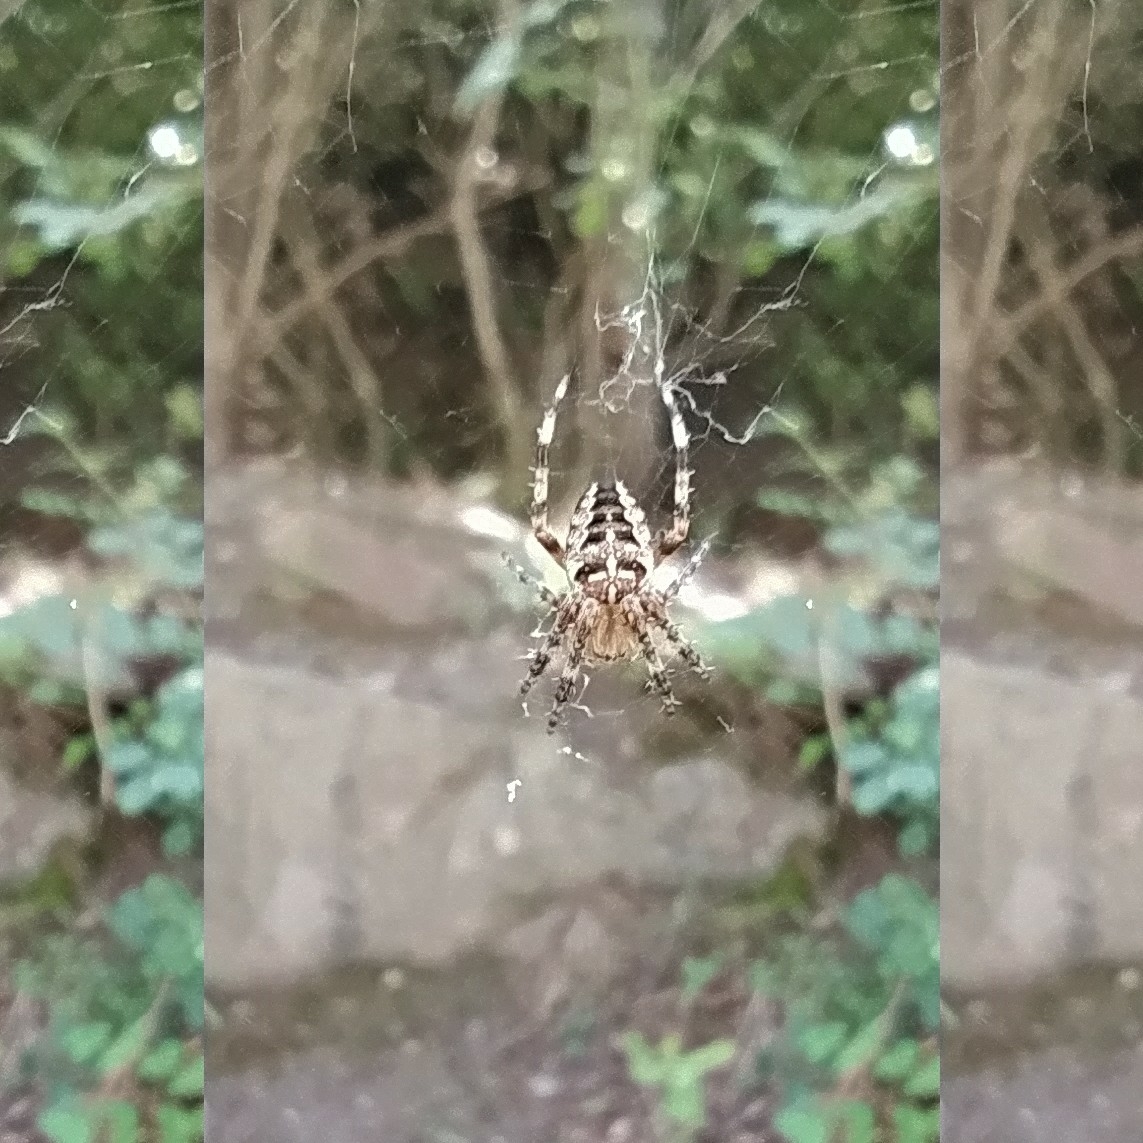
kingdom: Animalia
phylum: Arthropoda
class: Arachnida
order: Araneae
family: Araneidae
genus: Araneus
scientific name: Araneus diadematus
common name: Cross orbweaver
